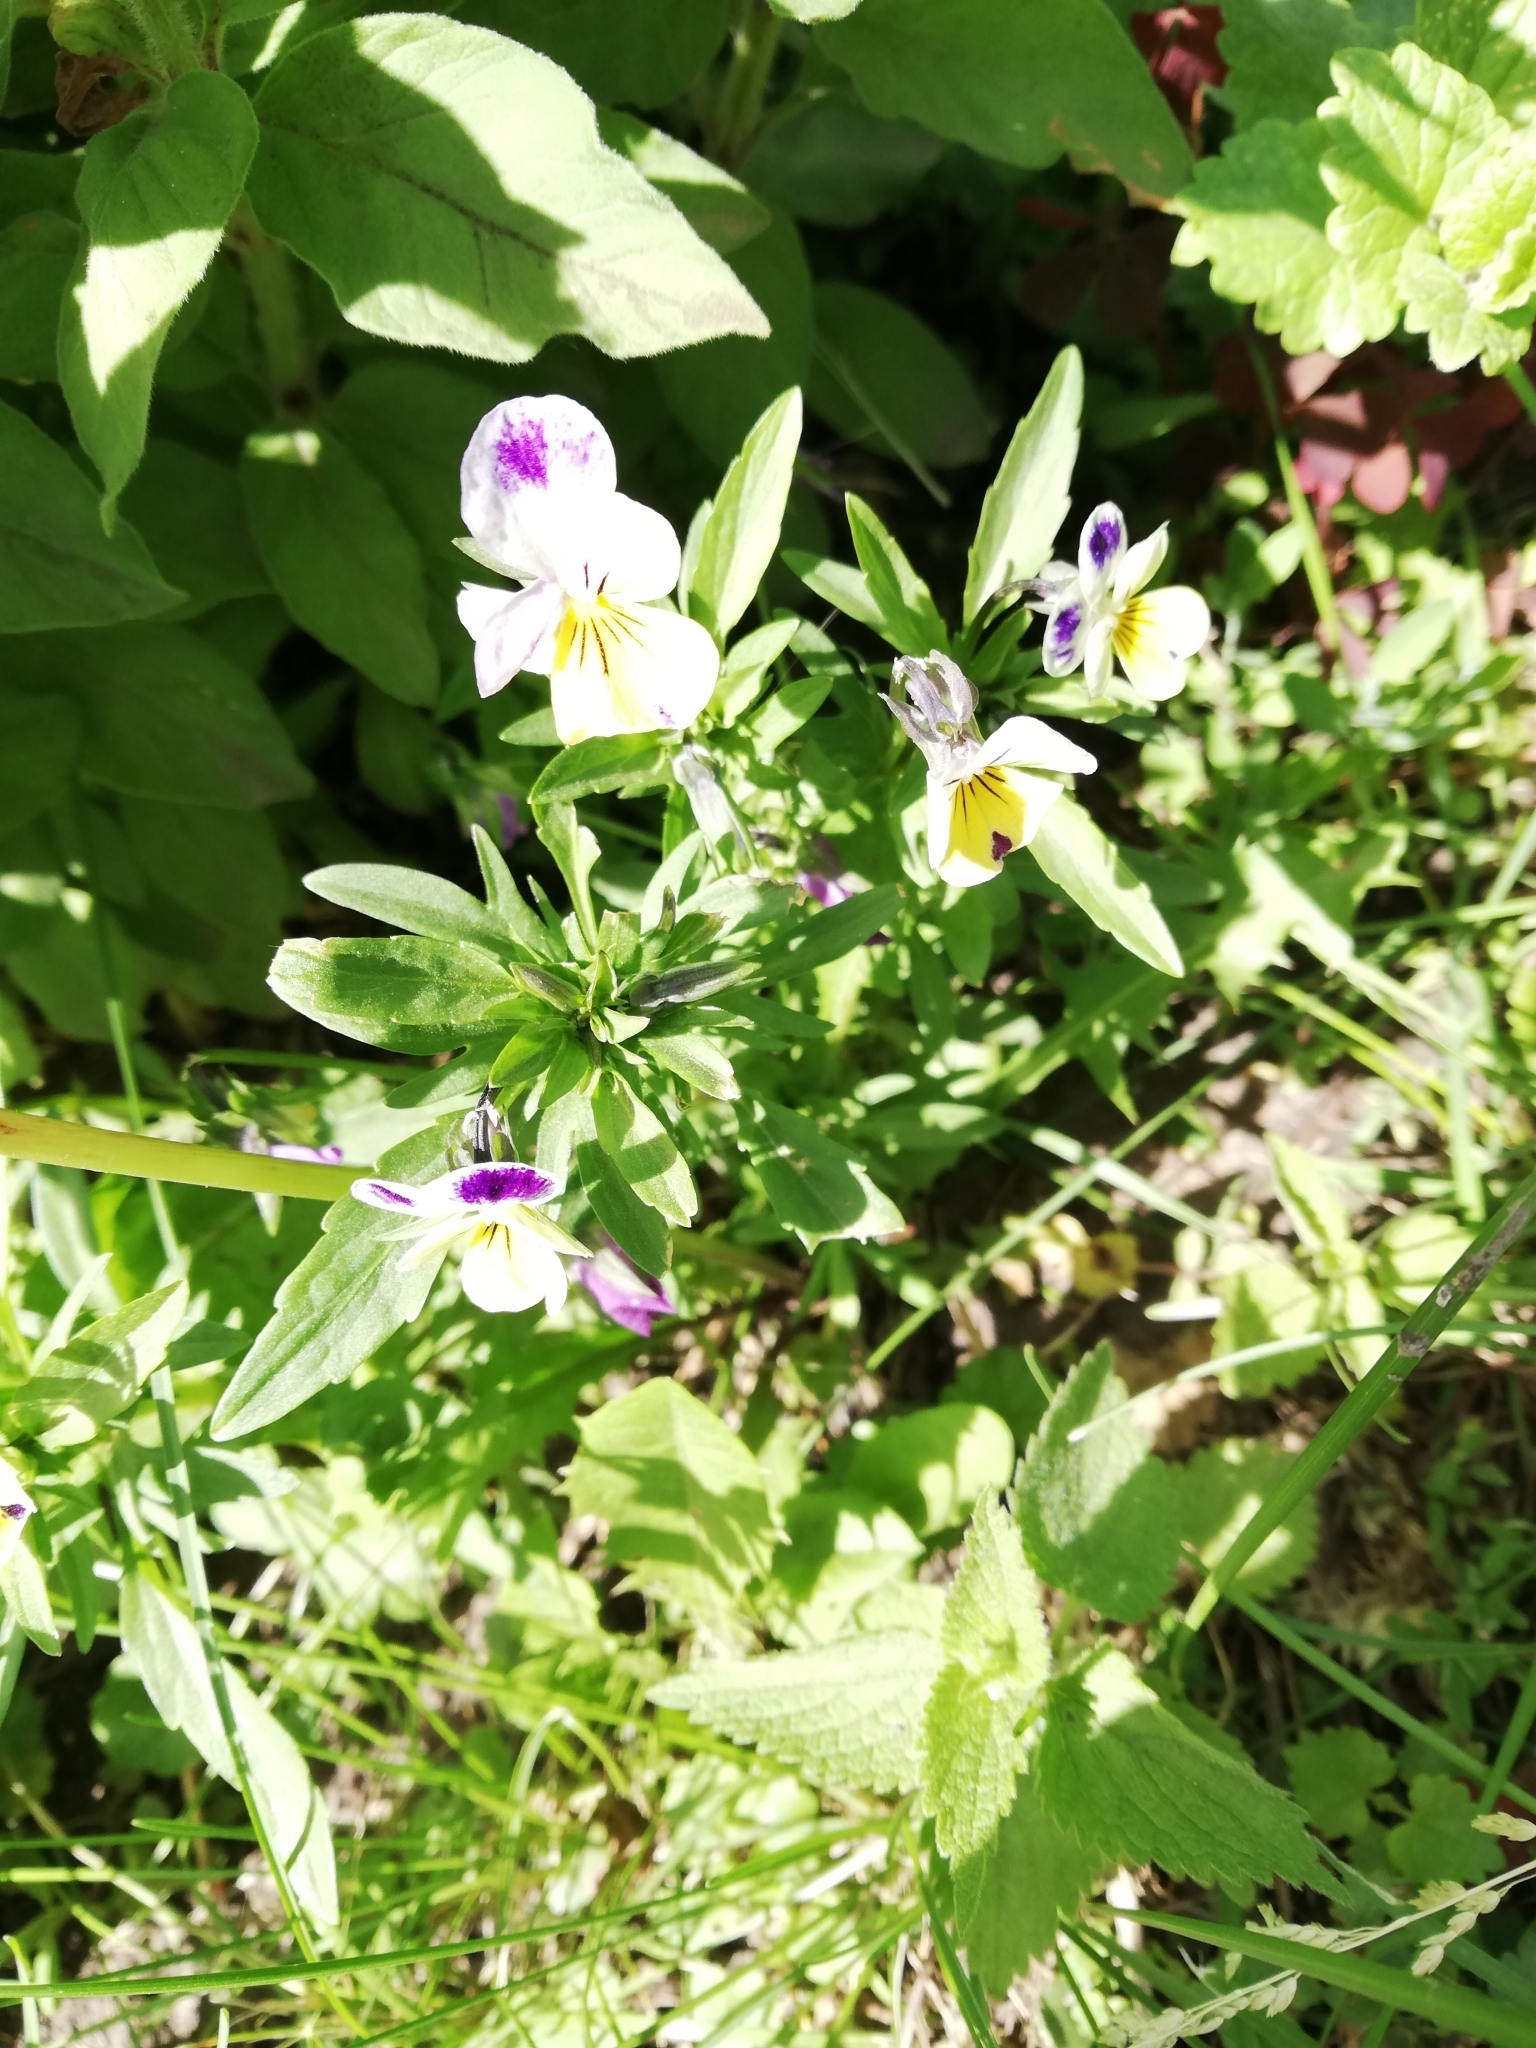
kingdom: Plantae
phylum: Tracheophyta
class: Magnoliopsida
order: Malpighiales
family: Violaceae
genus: Viola
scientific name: Viola wittrockiana
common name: Garden pansy
